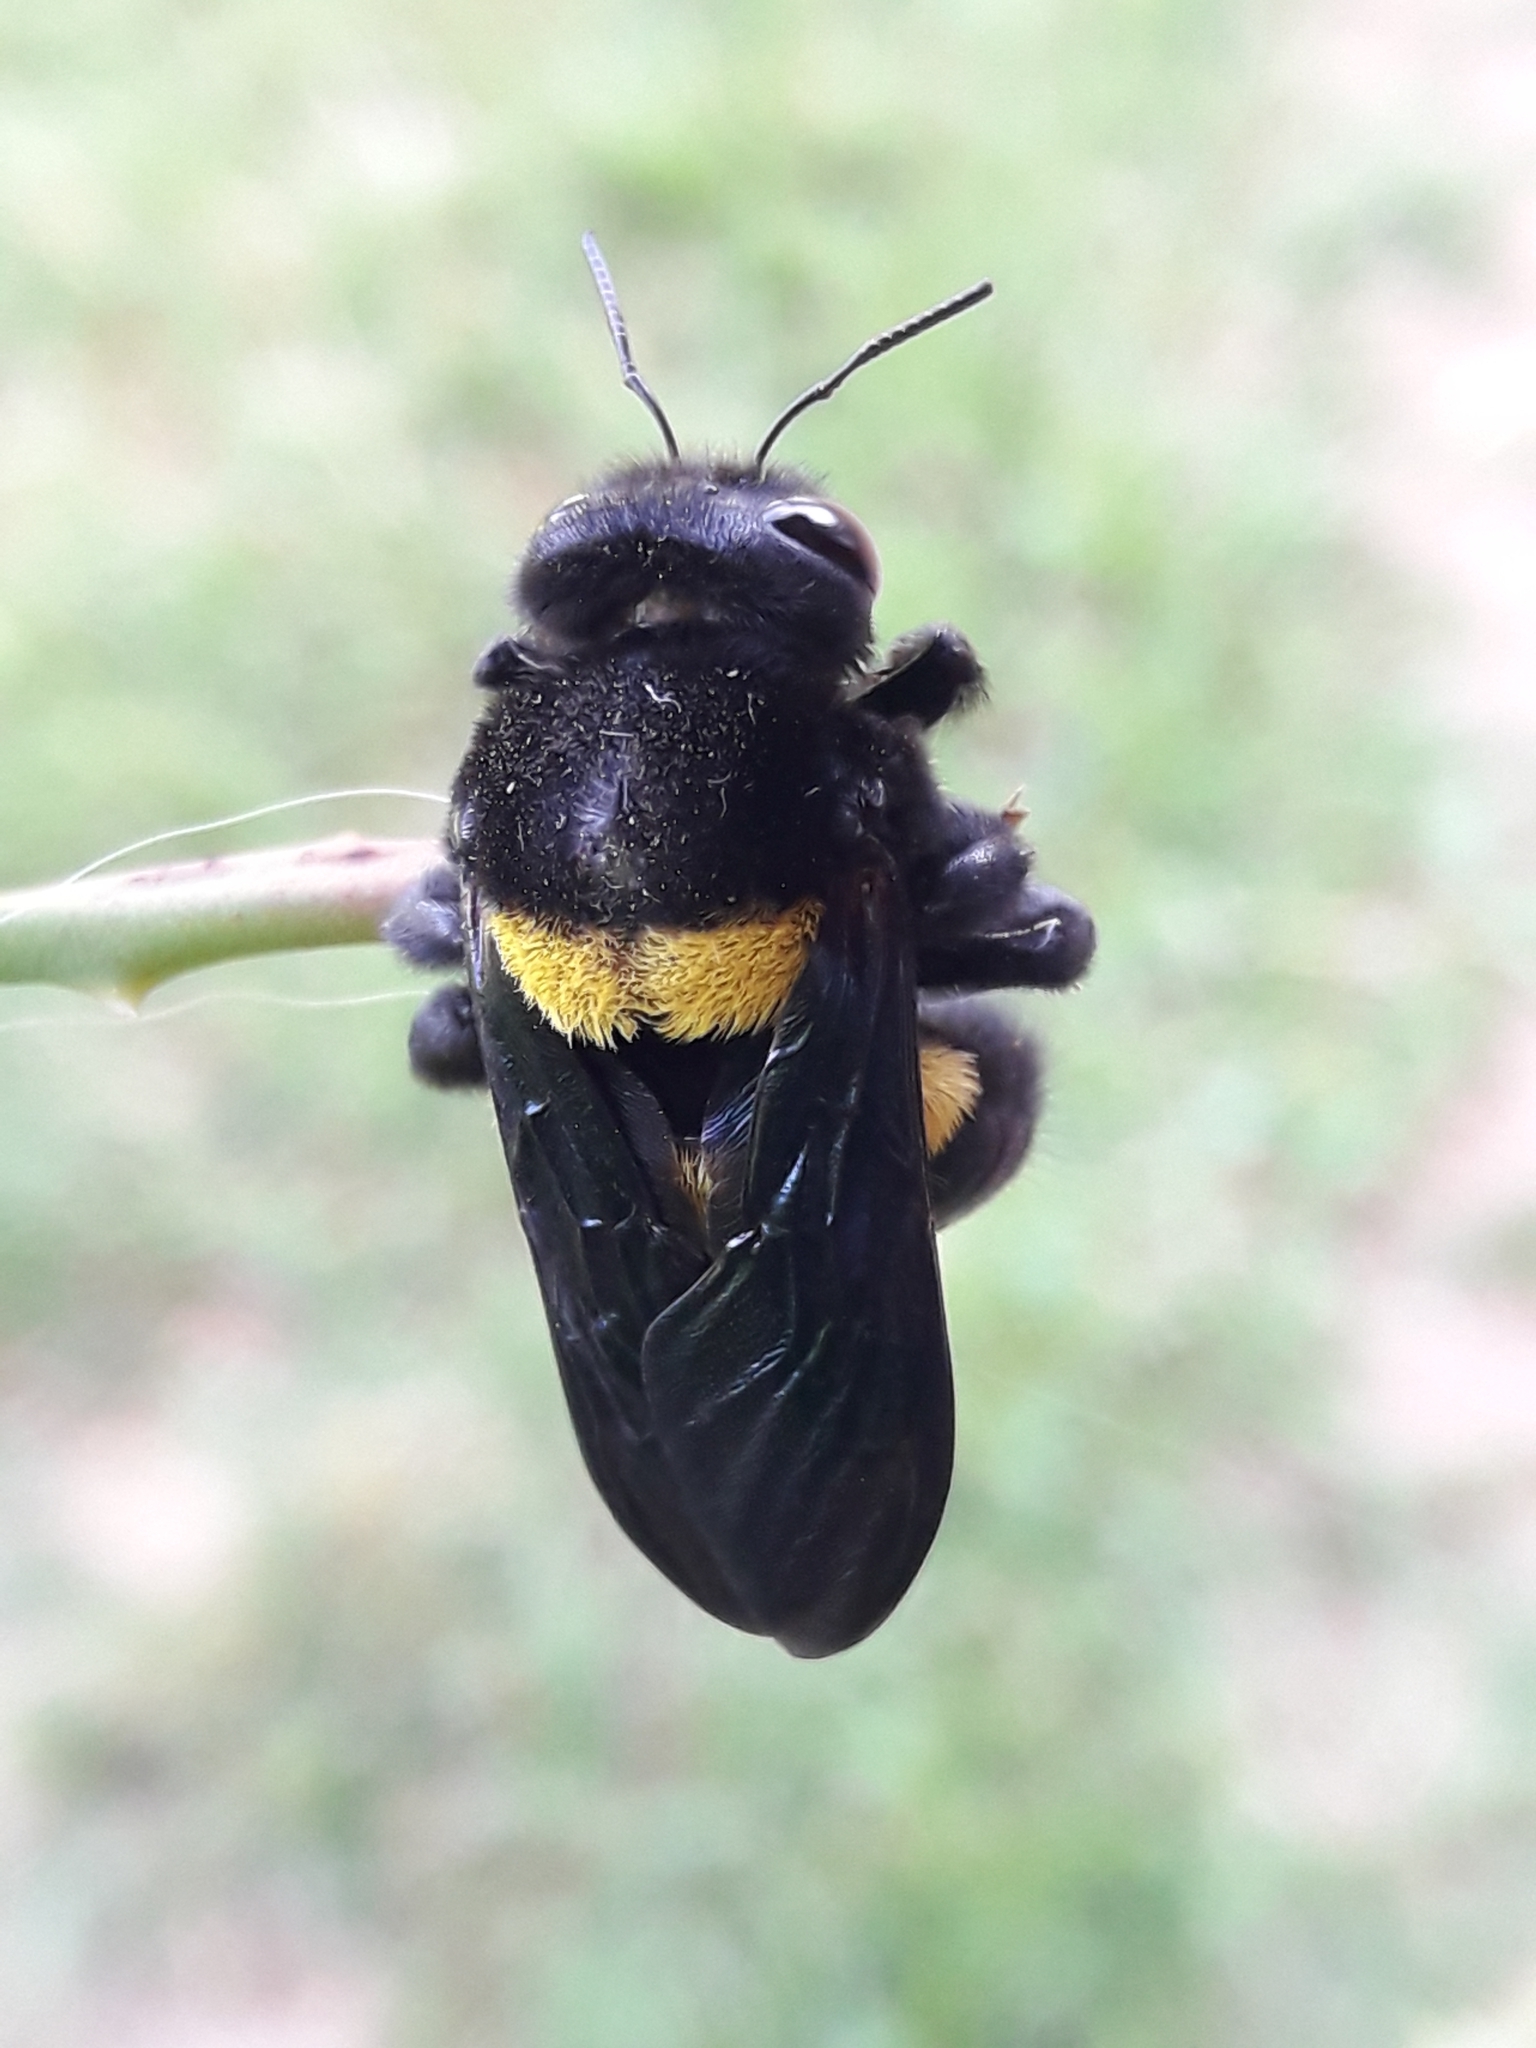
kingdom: Animalia
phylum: Arthropoda
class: Insecta
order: Hymenoptera
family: Apidae
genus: Xylocopa
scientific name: Xylocopa caffra
